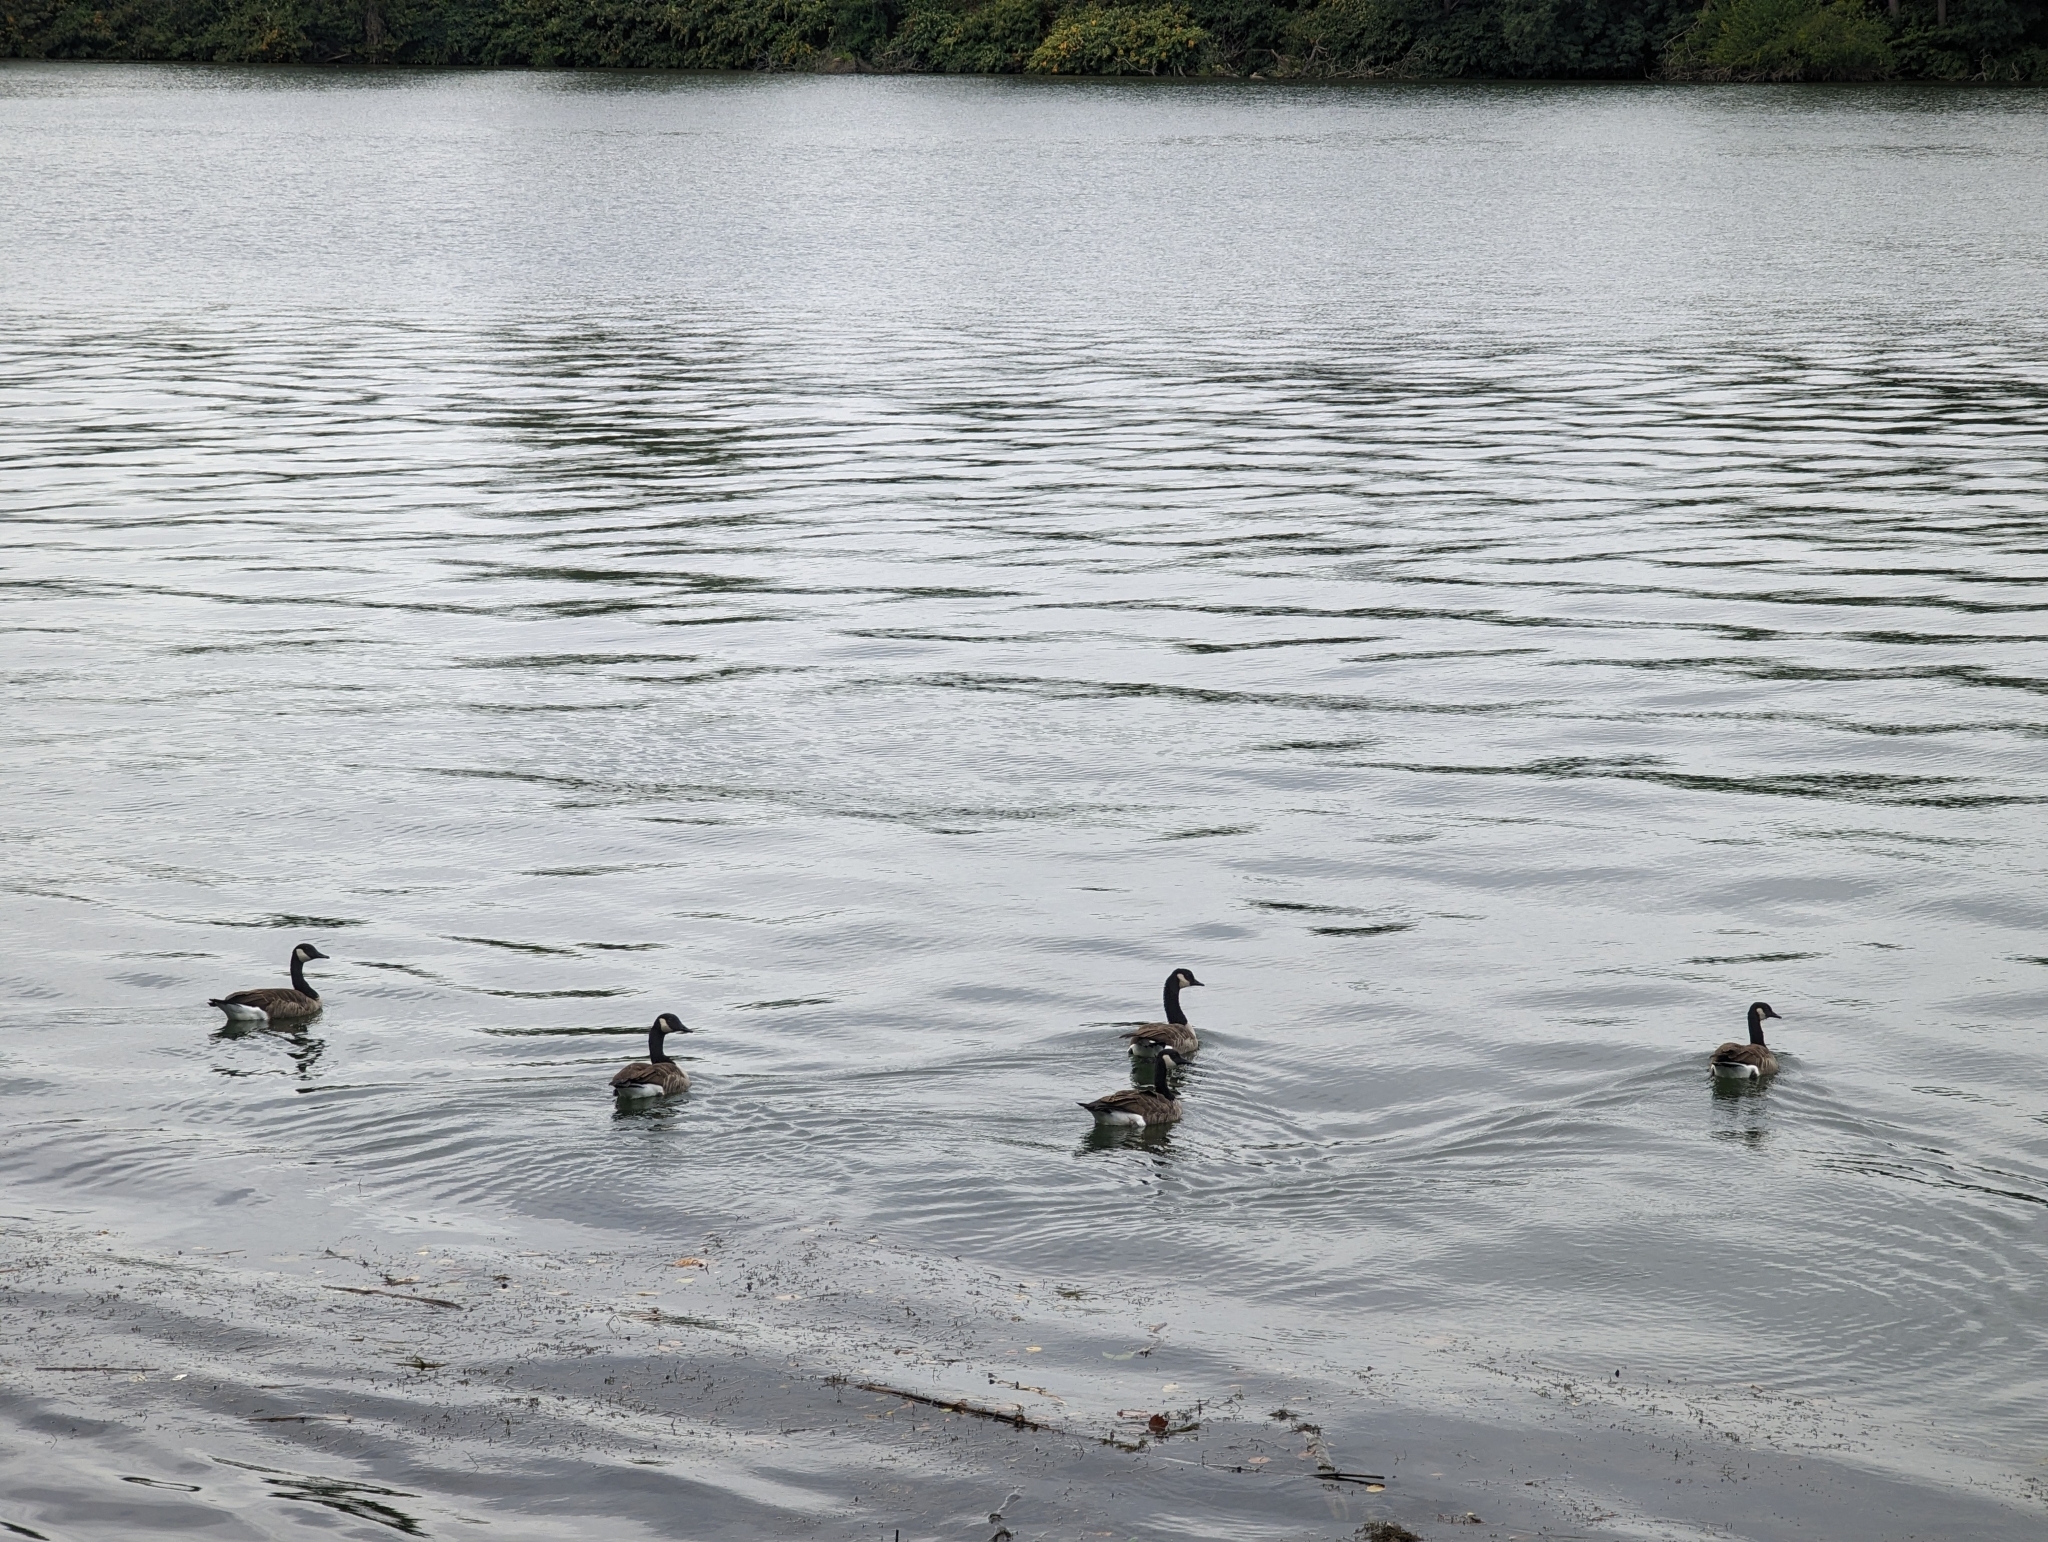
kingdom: Animalia
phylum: Chordata
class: Aves
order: Anseriformes
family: Anatidae
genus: Branta
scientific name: Branta canadensis
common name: Canada goose
